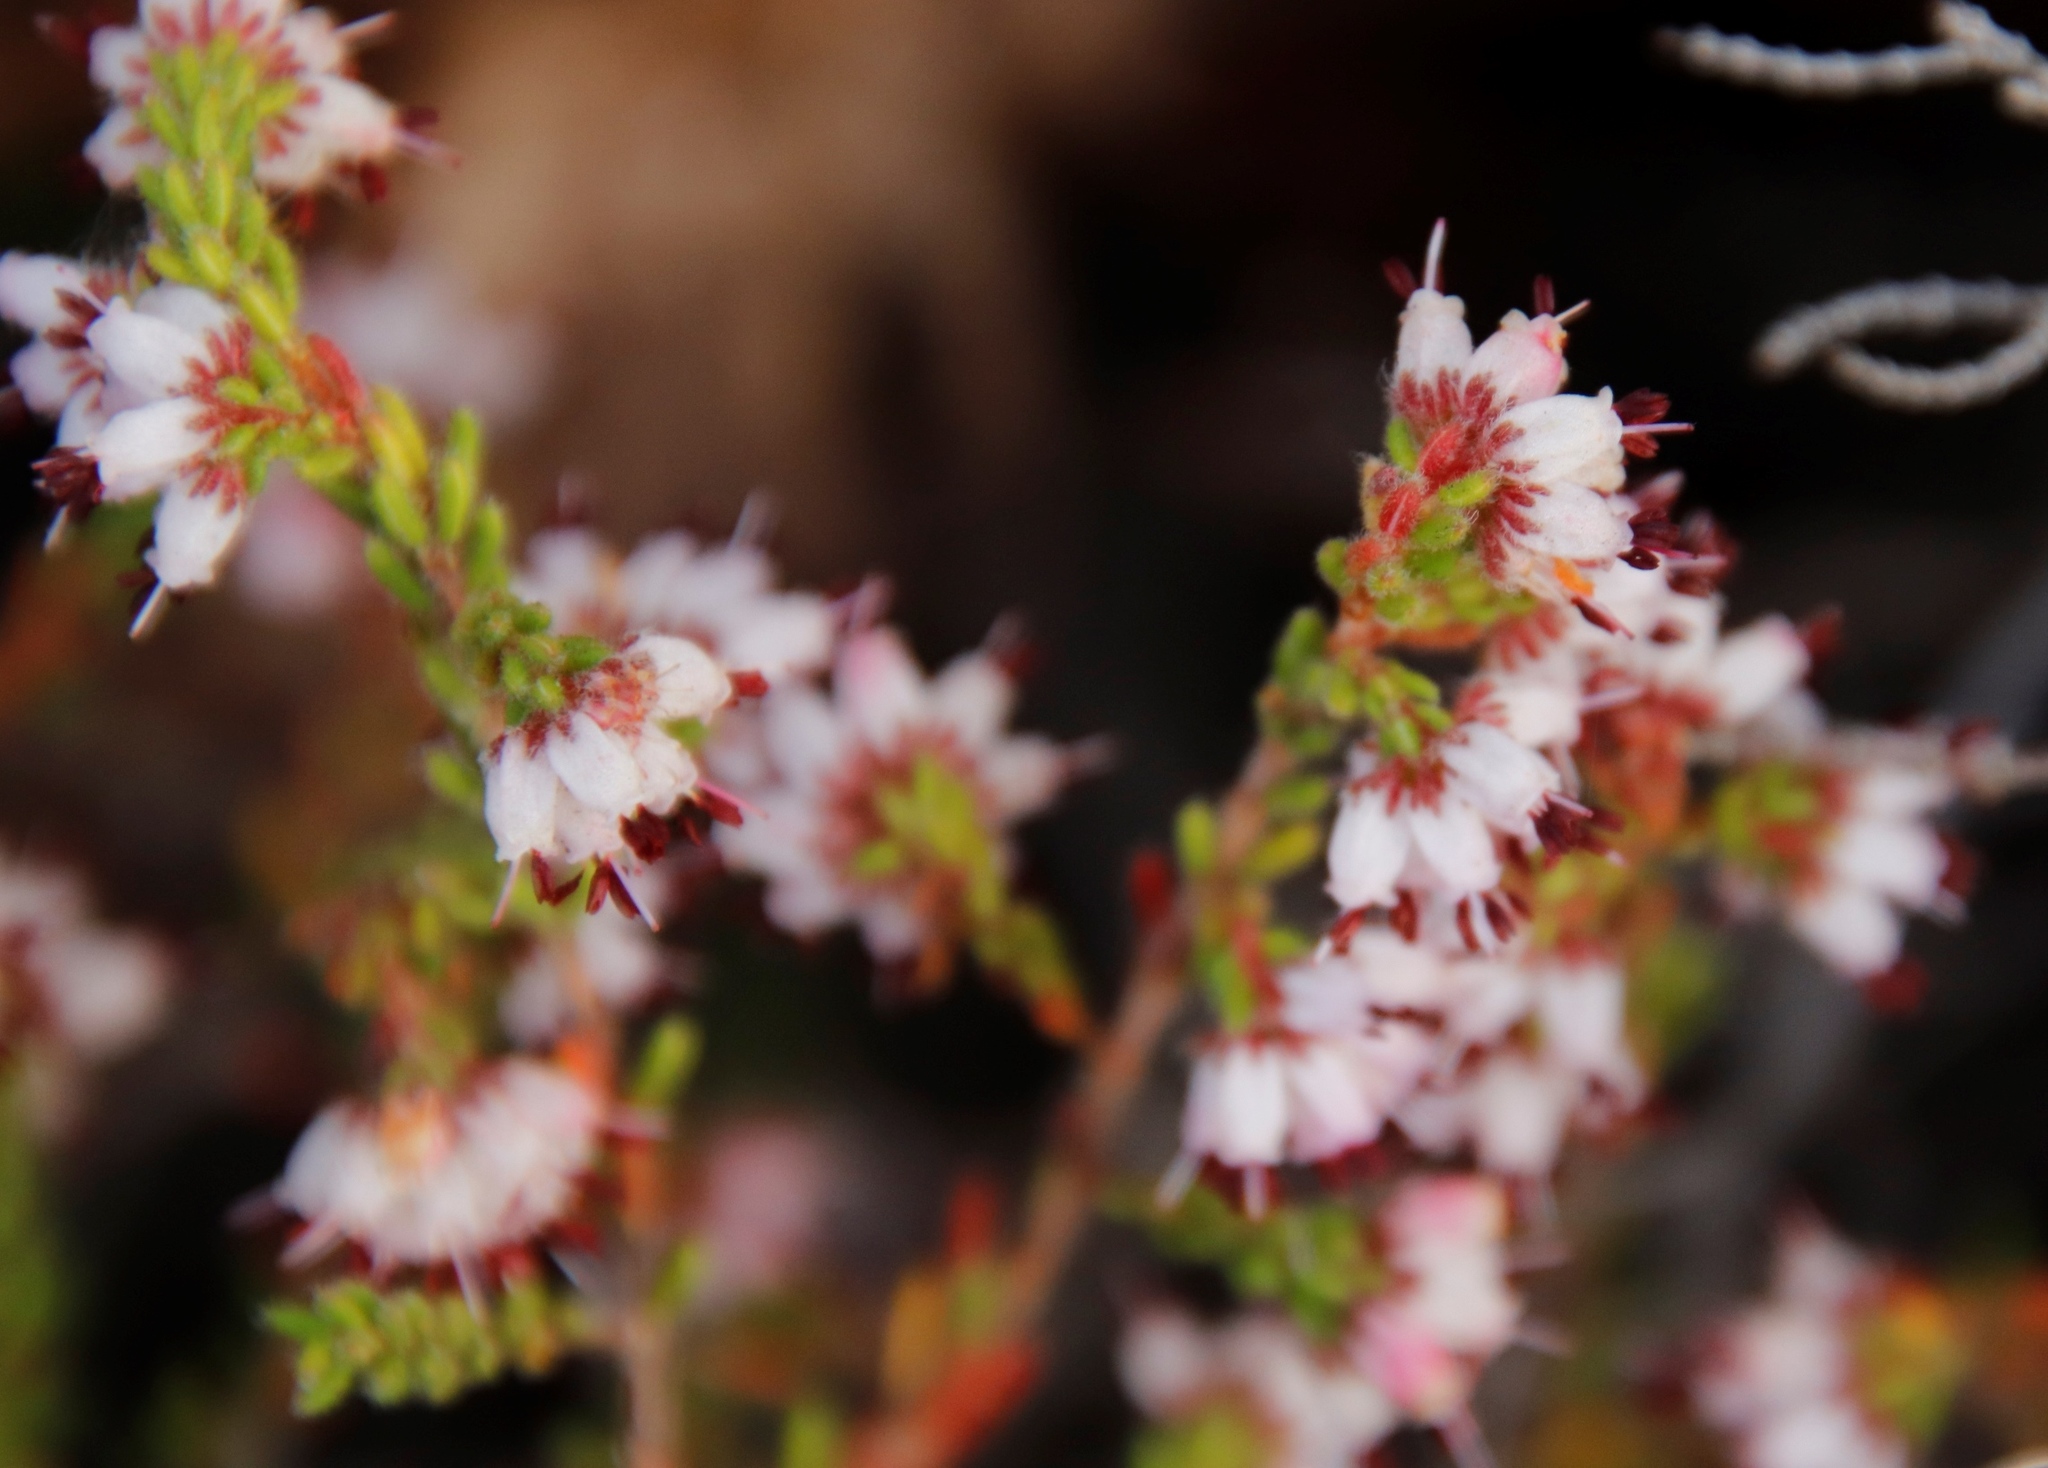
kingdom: Plantae
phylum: Tracheophyta
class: Magnoliopsida
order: Ericales
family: Ericaceae
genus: Erica
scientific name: Erica ericoides
